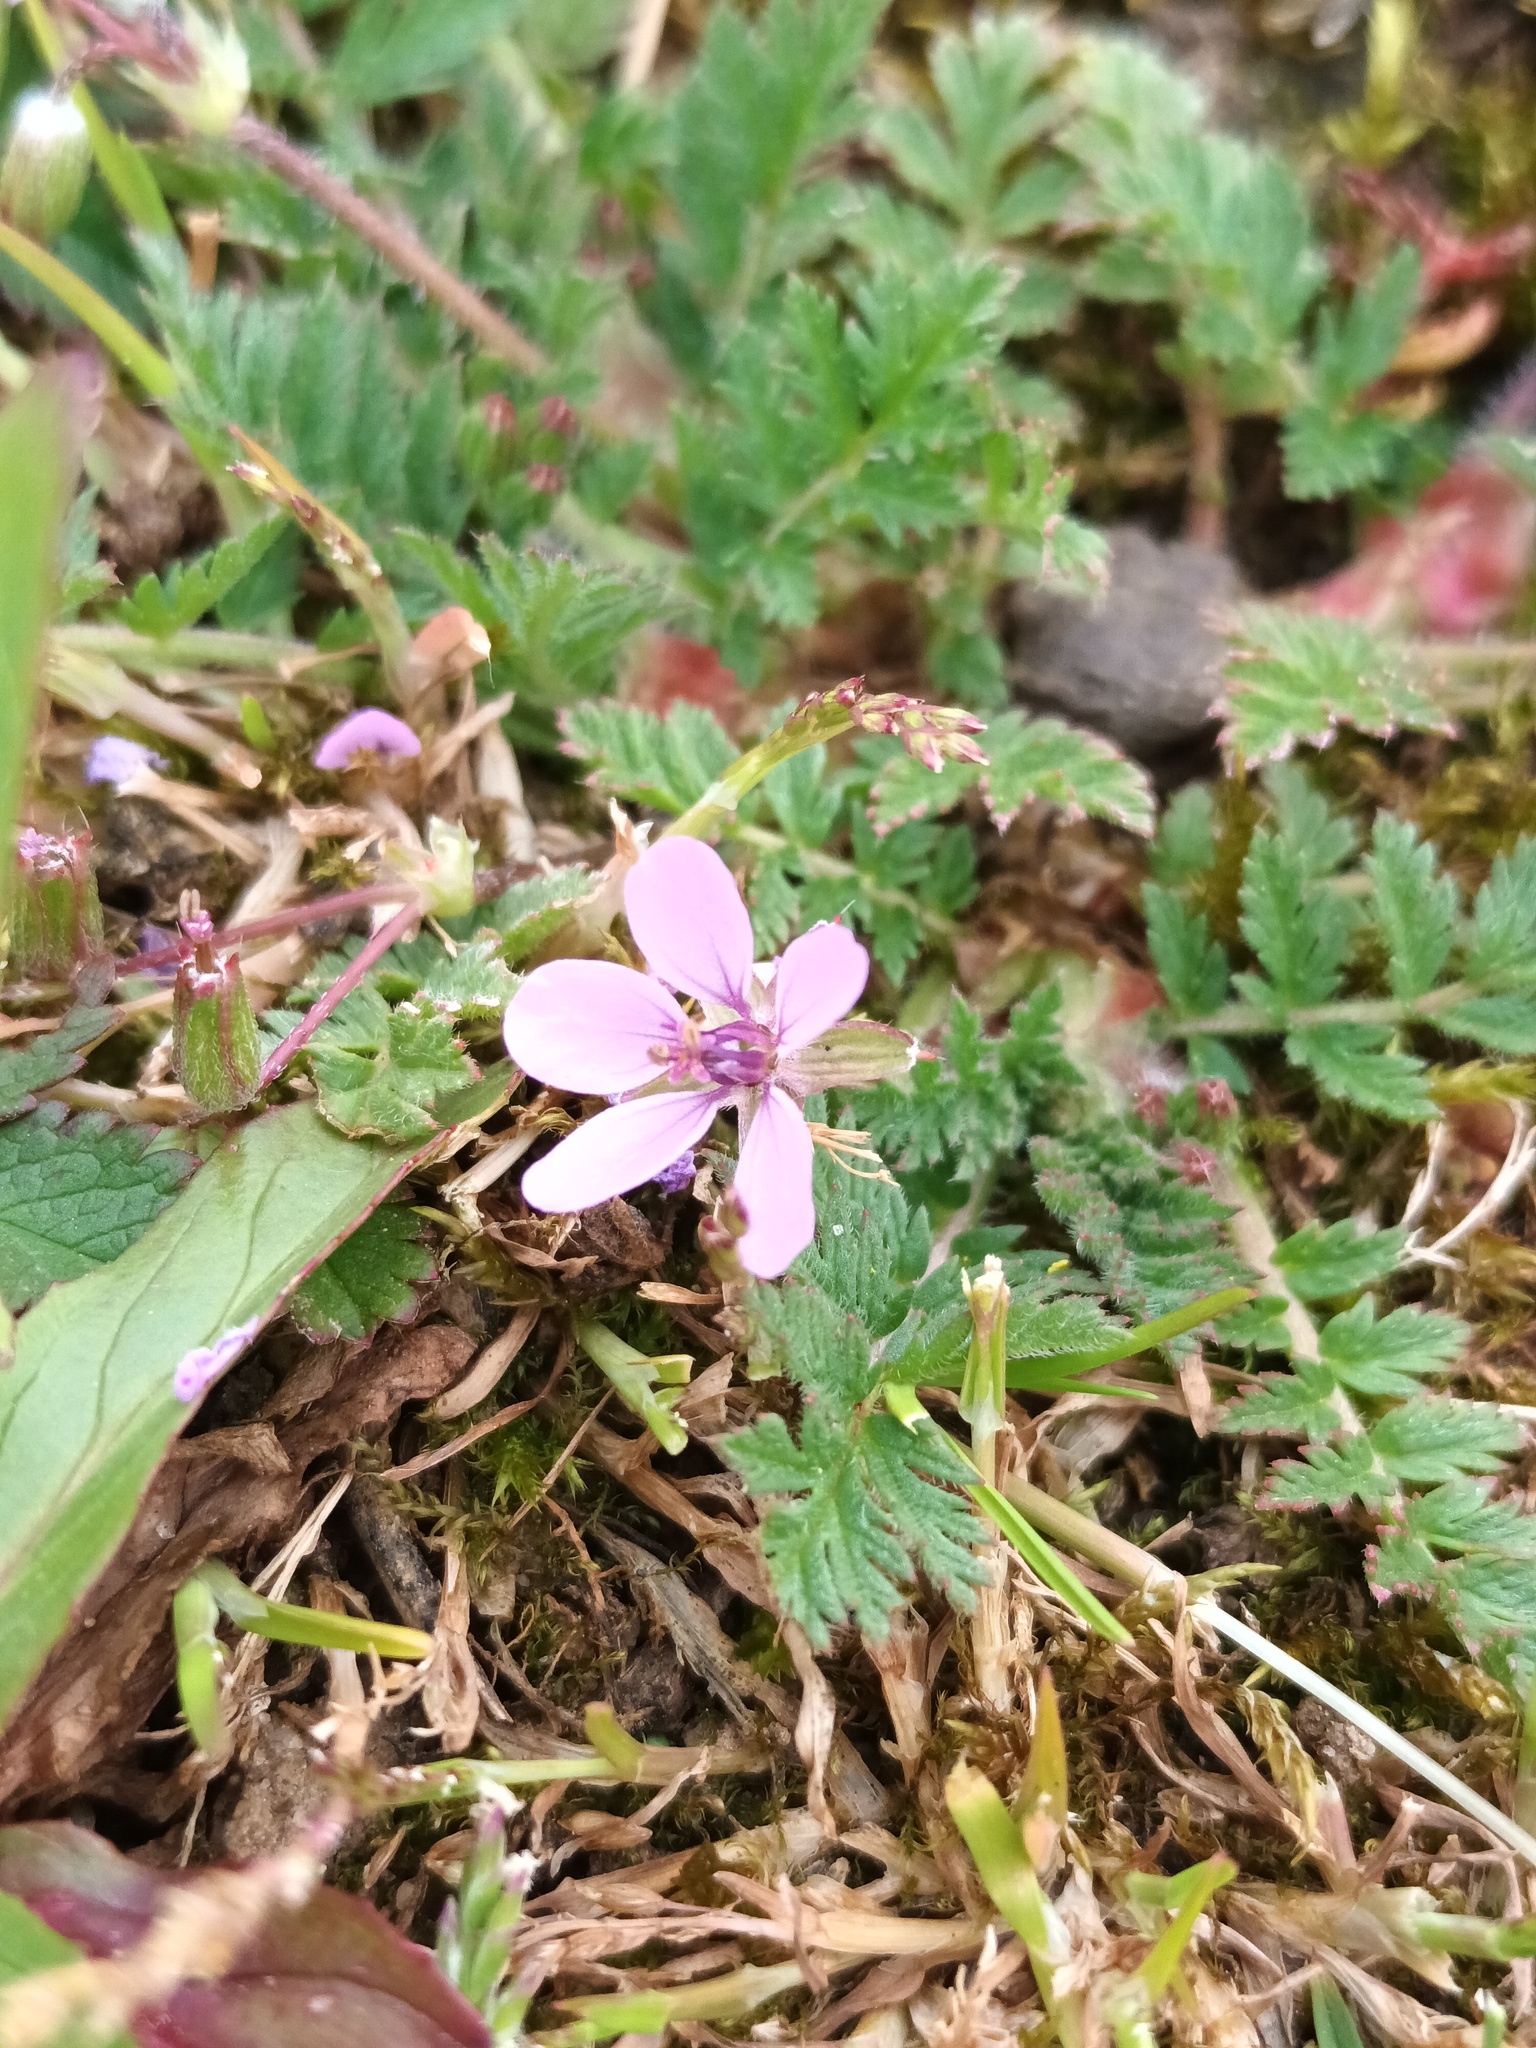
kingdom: Plantae
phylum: Tracheophyta
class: Magnoliopsida
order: Geraniales
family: Geraniaceae
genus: Erodium
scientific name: Erodium cicutarium
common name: Common stork's-bill
